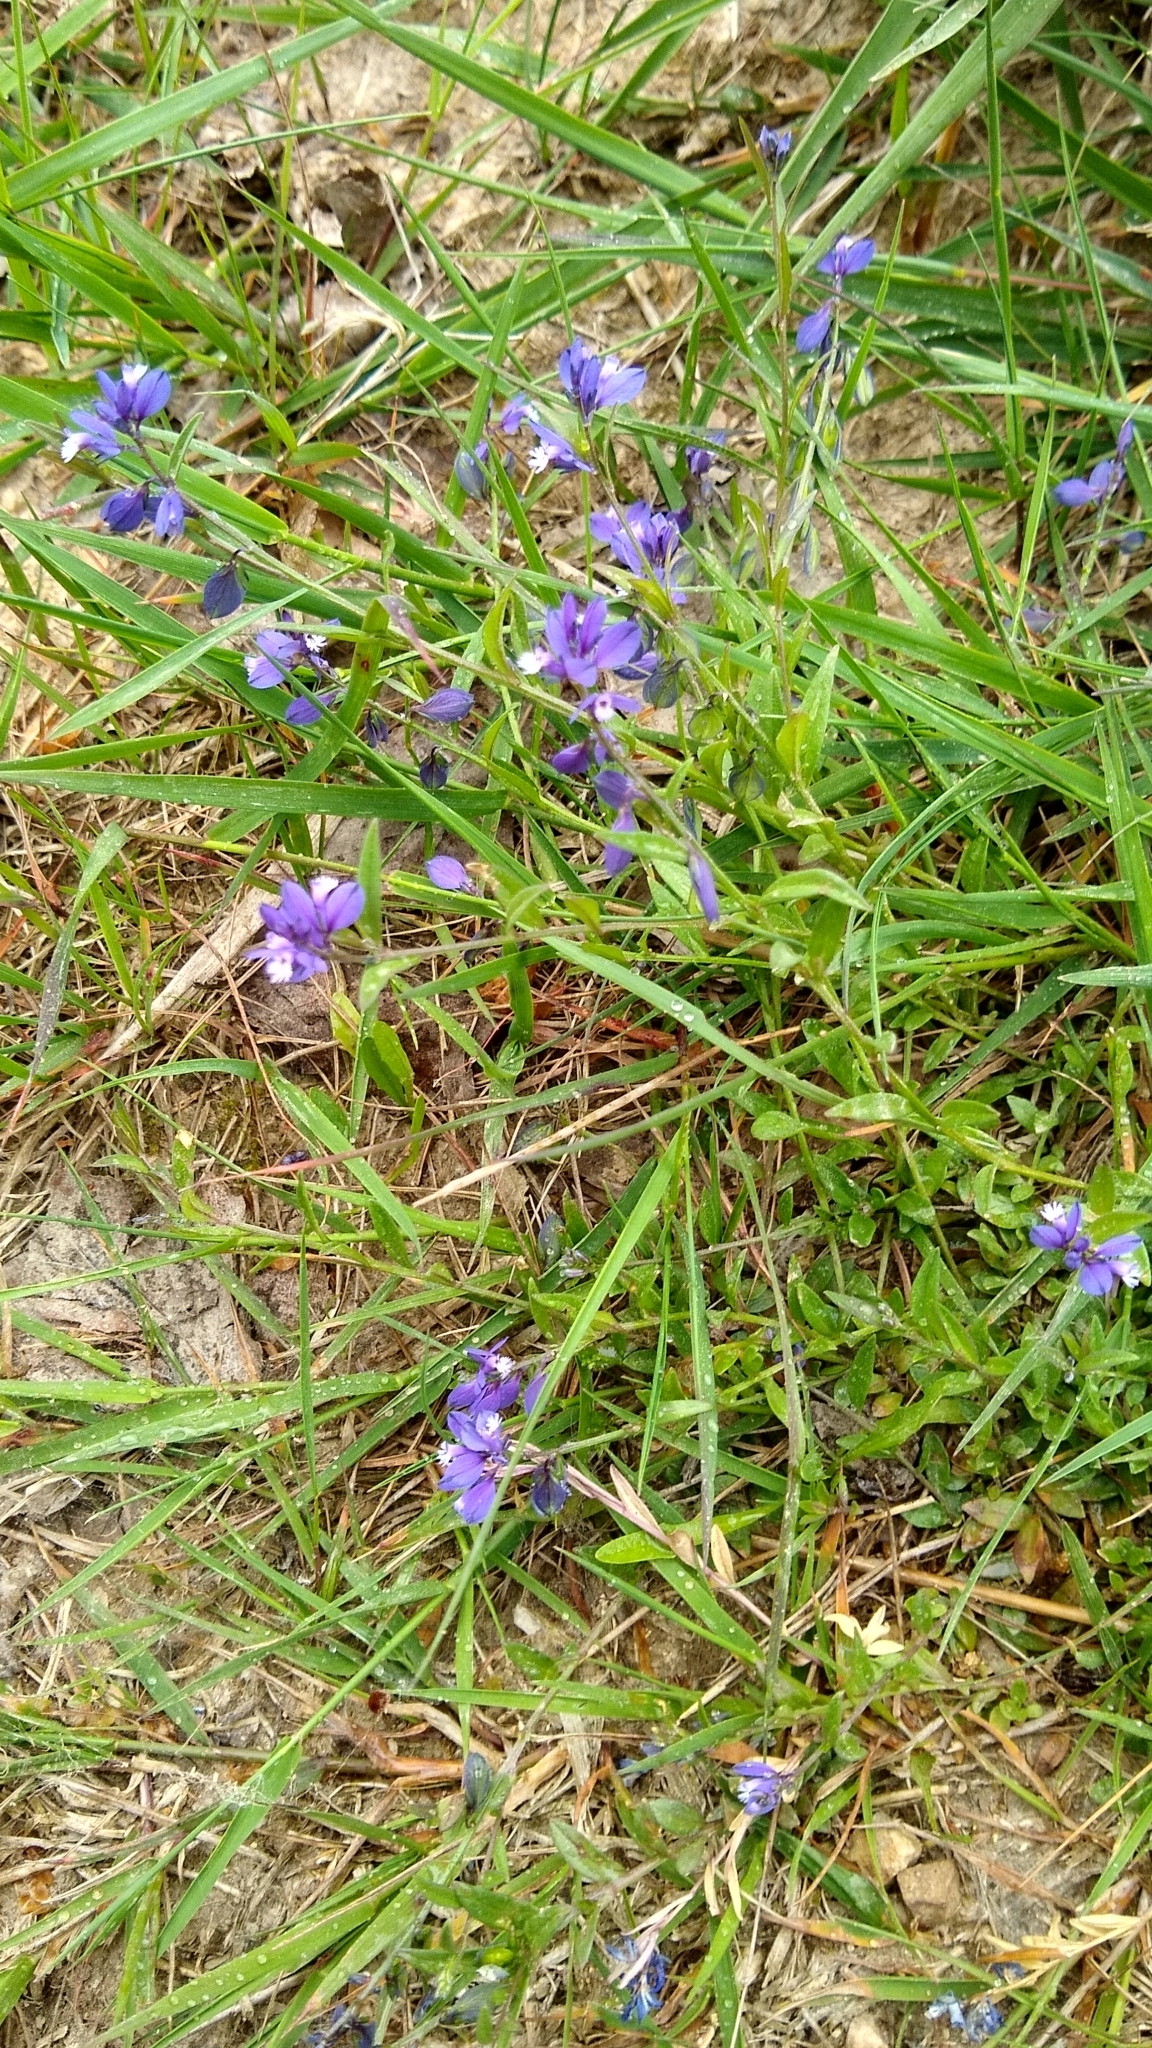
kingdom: Plantae
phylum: Tracheophyta
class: Magnoliopsida
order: Fabales
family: Polygalaceae
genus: Polygala
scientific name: Polygala vulgaris
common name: Common milkwort
